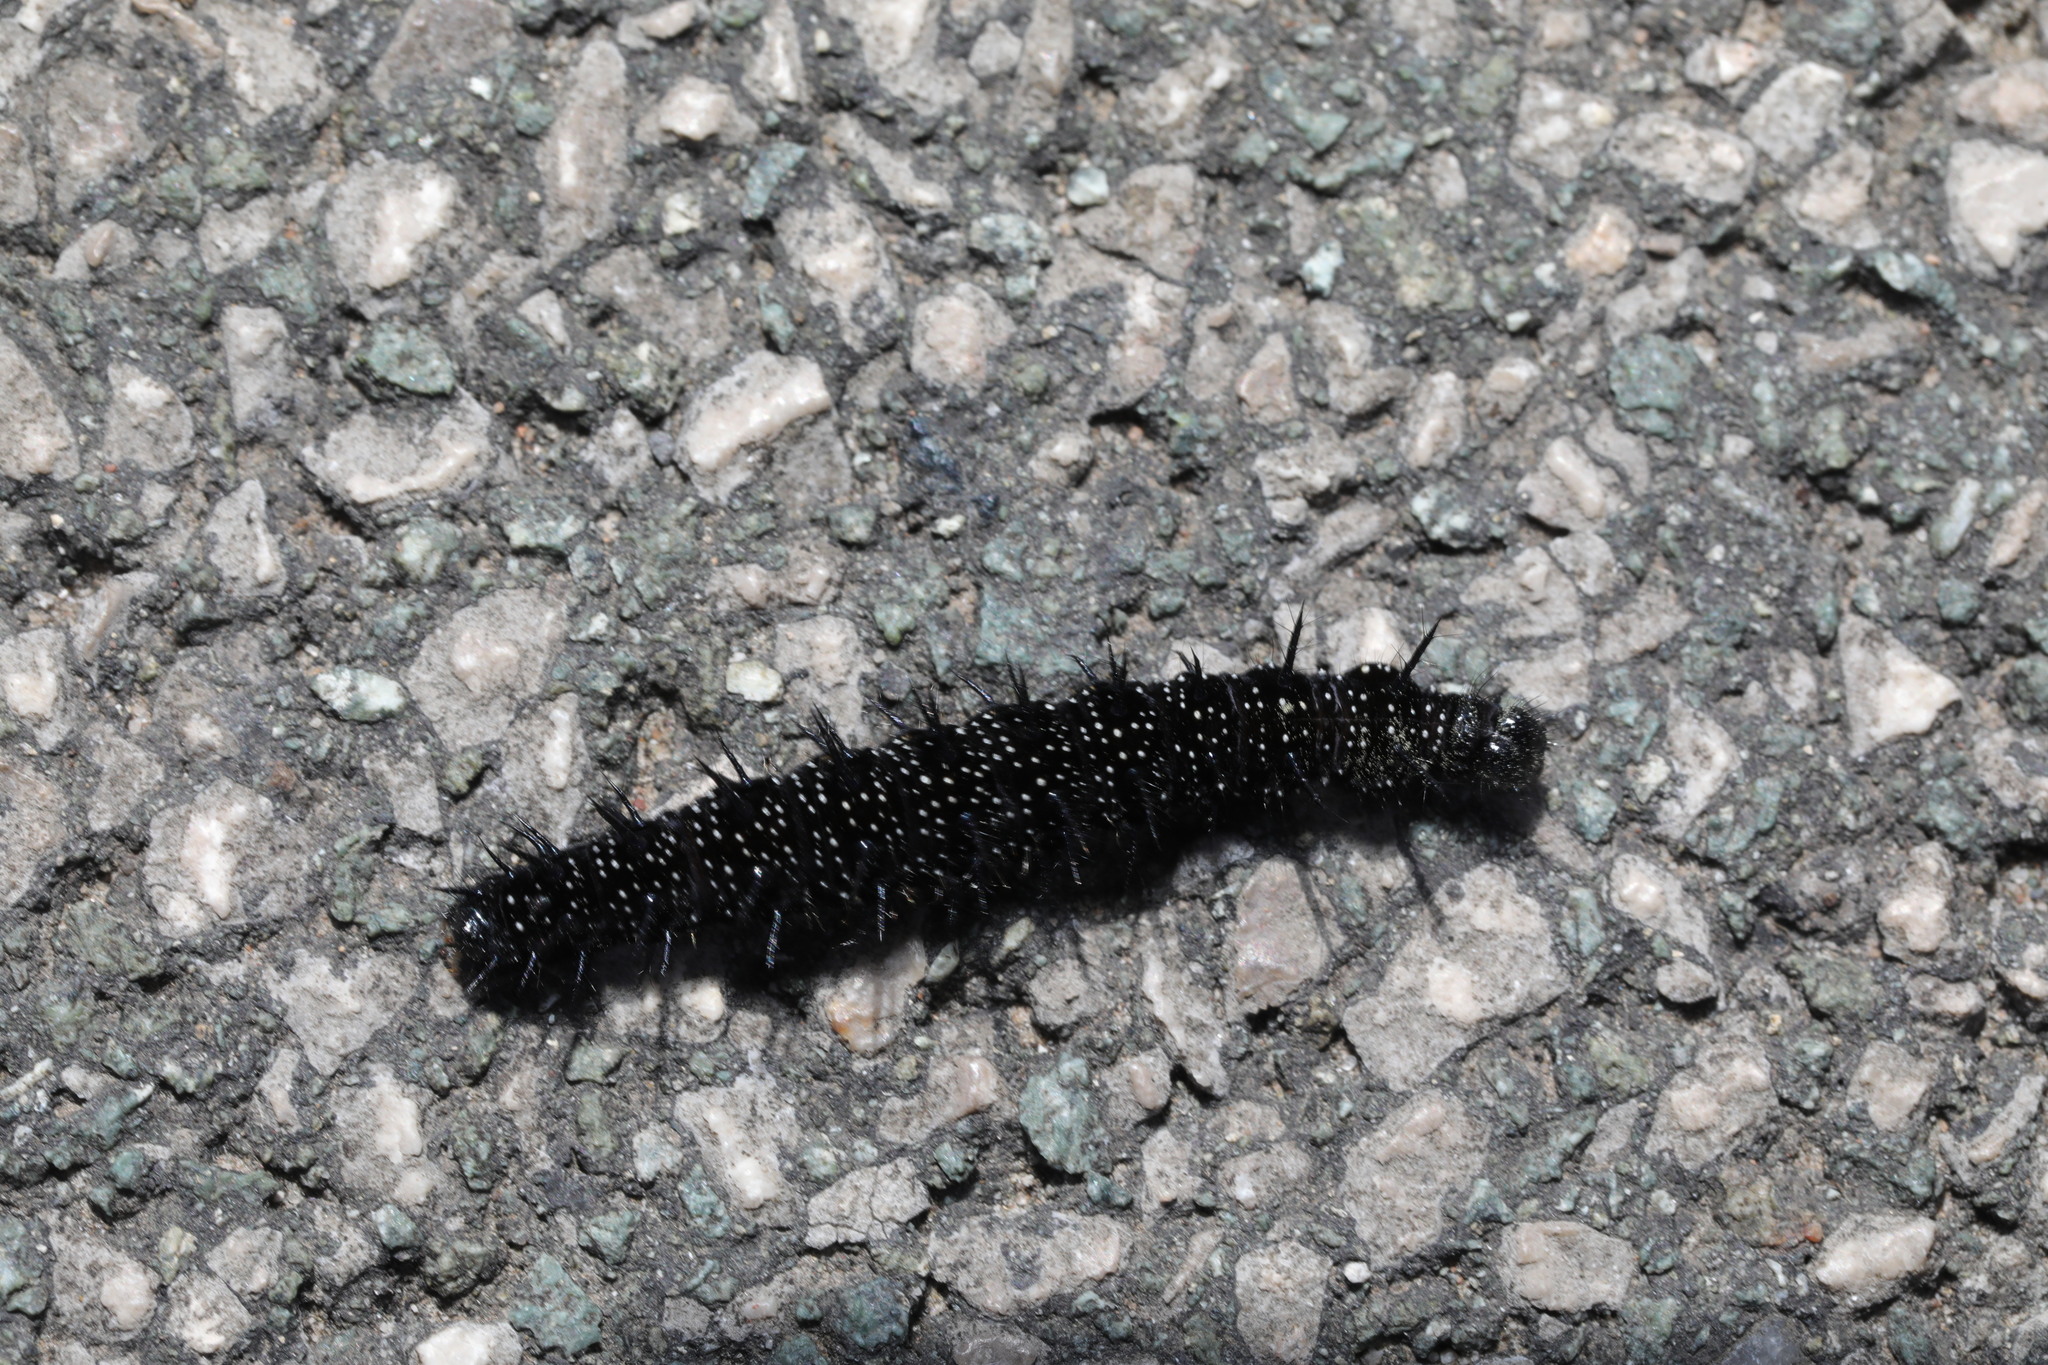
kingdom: Animalia
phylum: Arthropoda
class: Insecta
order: Lepidoptera
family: Nymphalidae
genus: Aglais
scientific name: Aglais io
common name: Peacock
